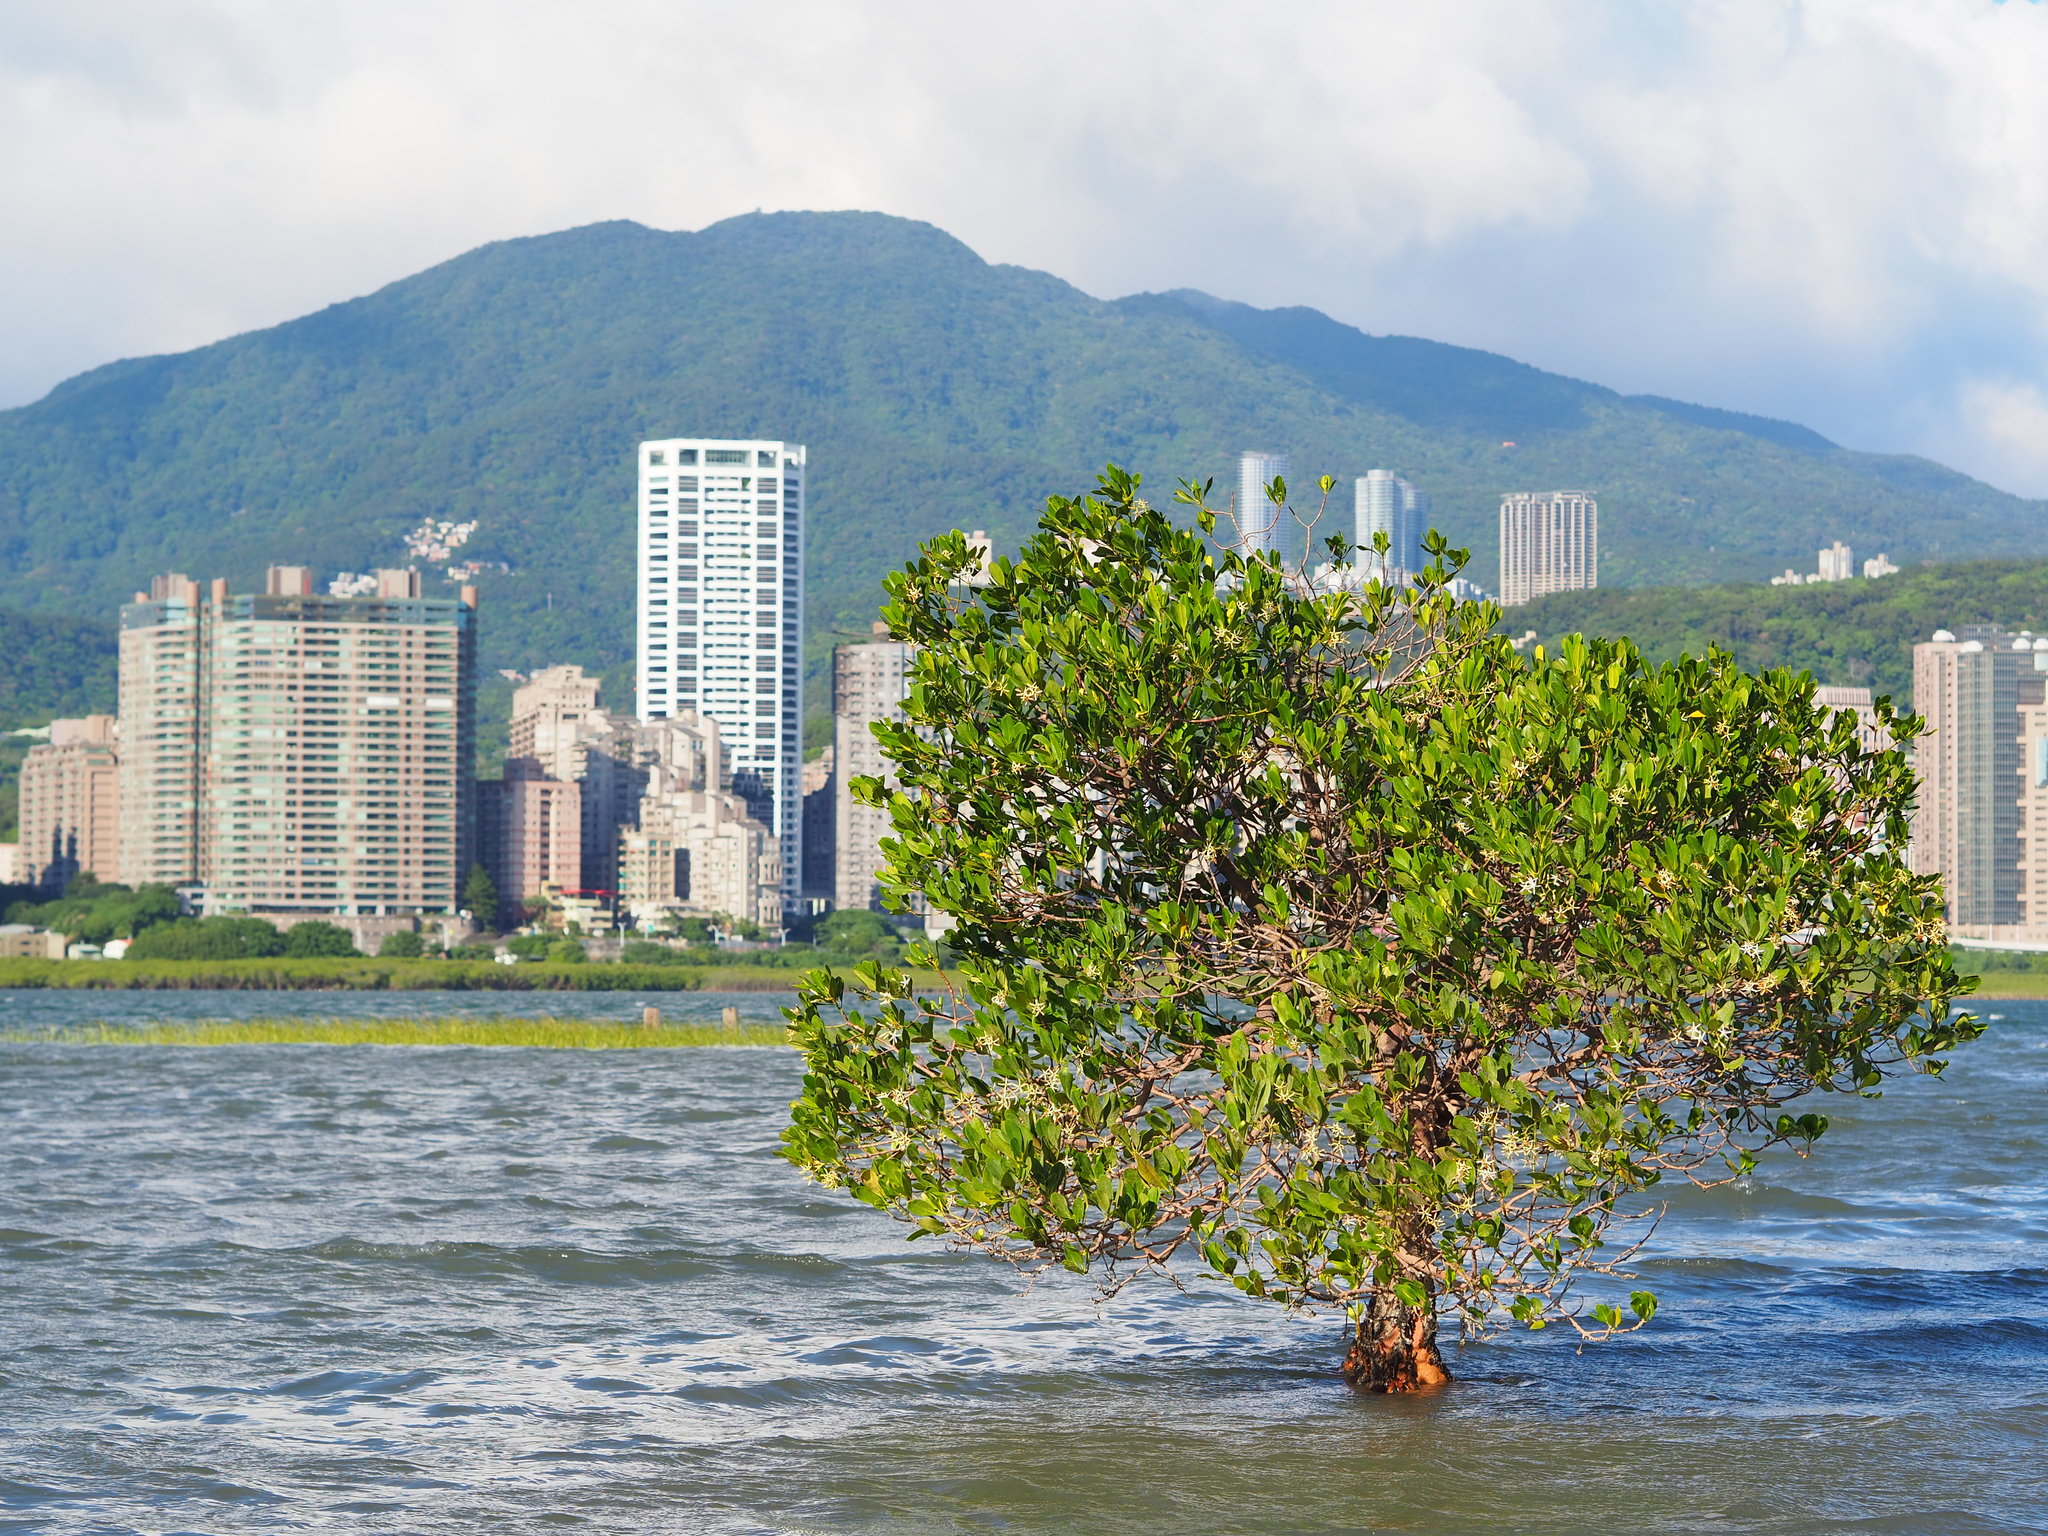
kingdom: Plantae
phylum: Tracheophyta
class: Magnoliopsida
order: Malpighiales
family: Rhizophoraceae
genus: Kandelia
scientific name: Kandelia obovata
